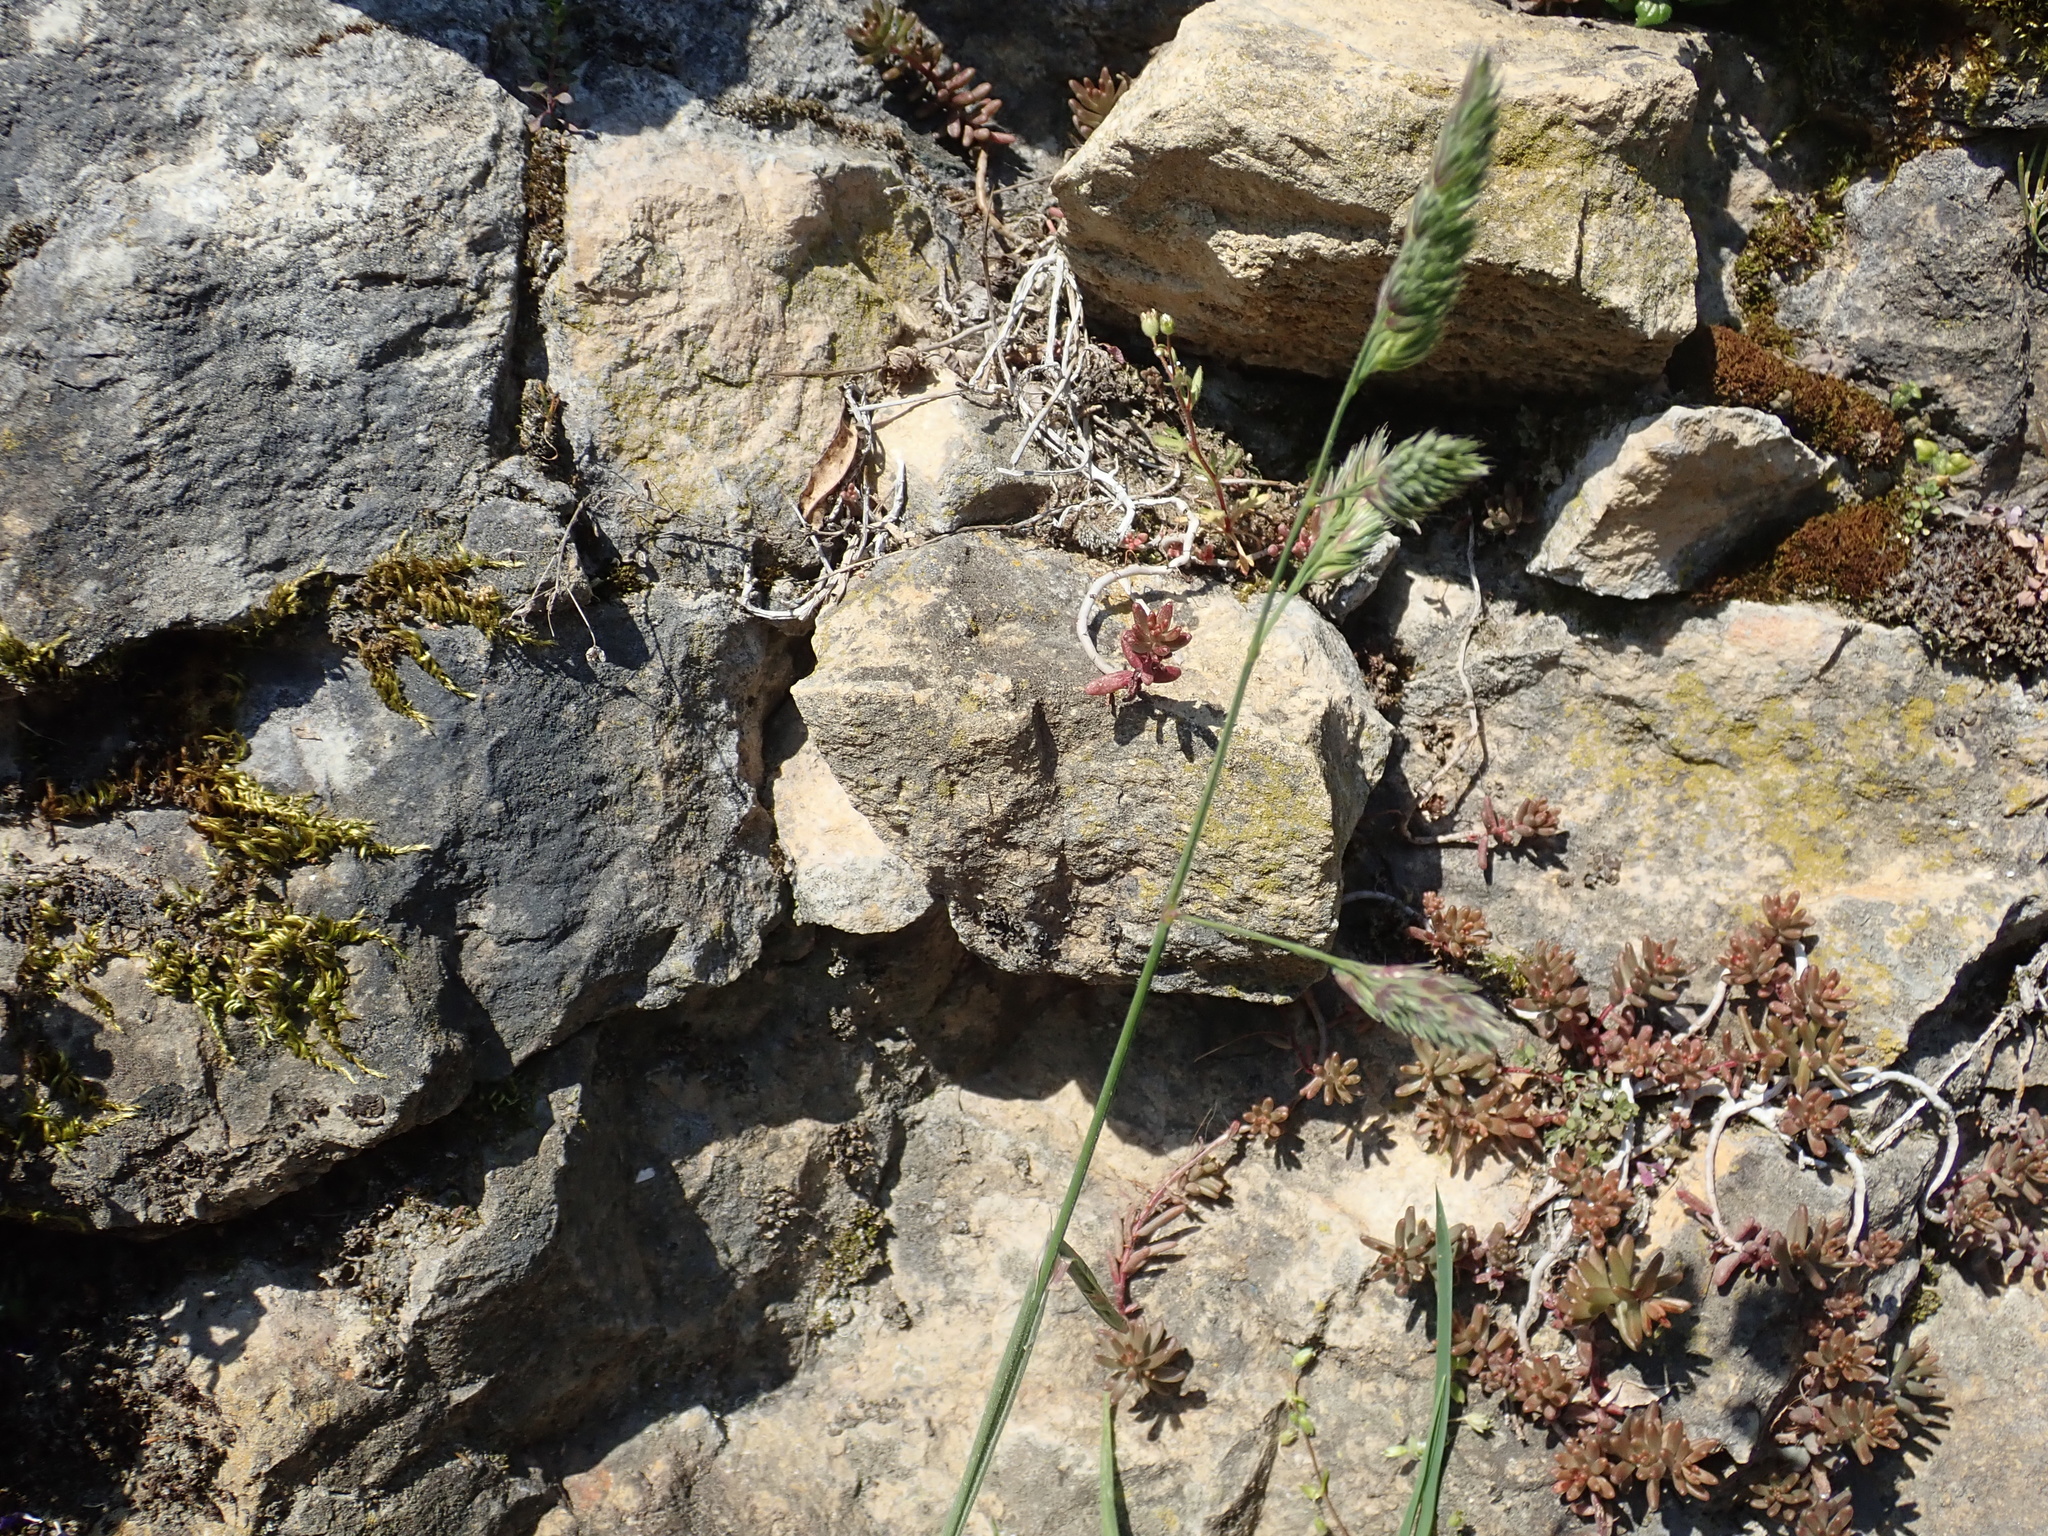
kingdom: Plantae
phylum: Tracheophyta
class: Liliopsida
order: Poales
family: Poaceae
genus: Dactylis
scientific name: Dactylis glomerata
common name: Orchardgrass
